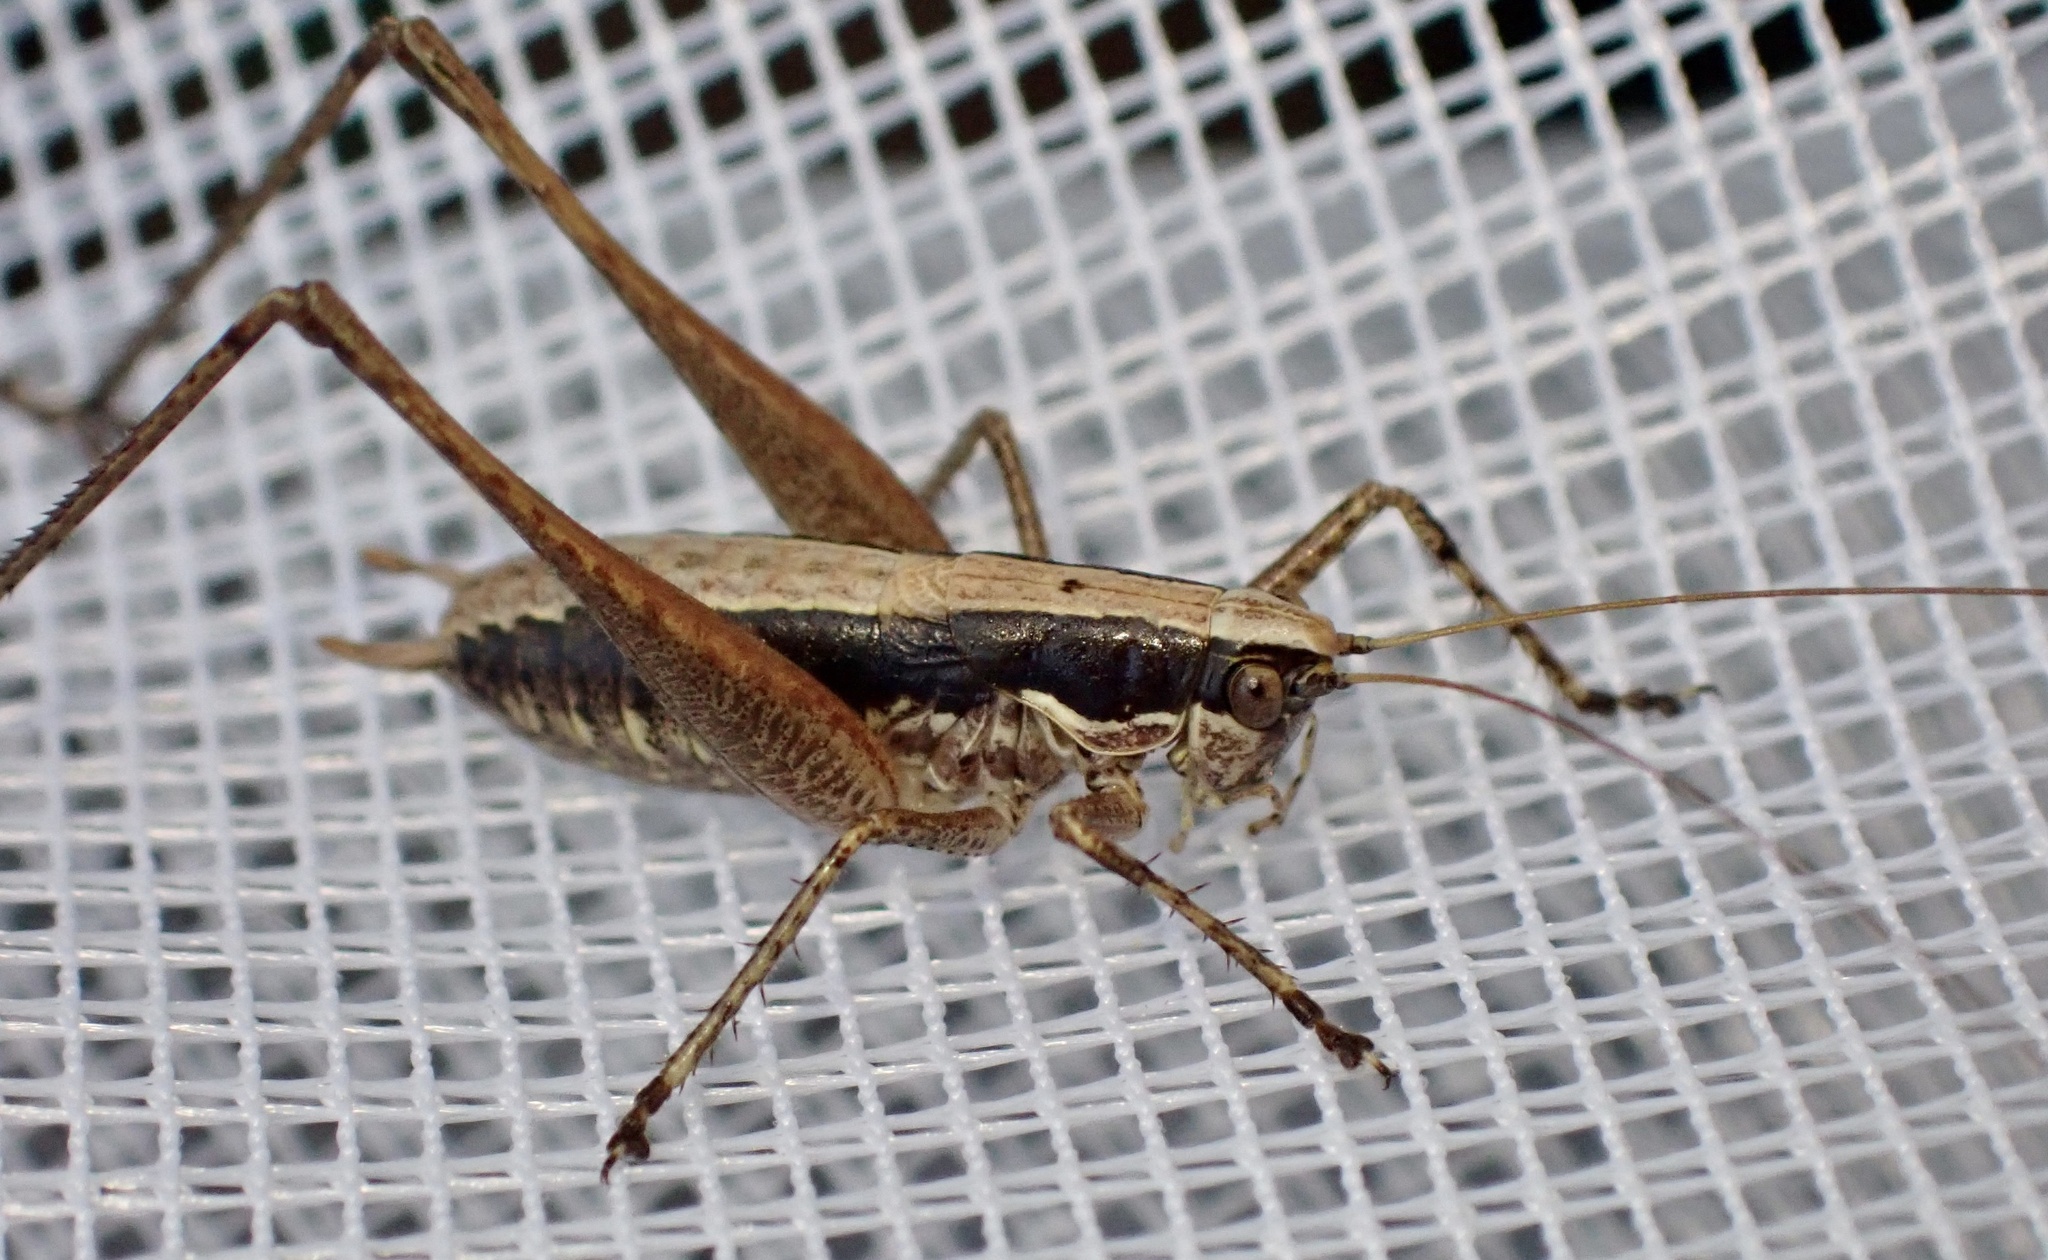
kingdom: Animalia
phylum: Arthropoda
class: Insecta
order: Orthoptera
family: Tettigoniidae
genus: Yersinella
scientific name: Yersinella raymondii
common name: Raymond's bush-cricket
